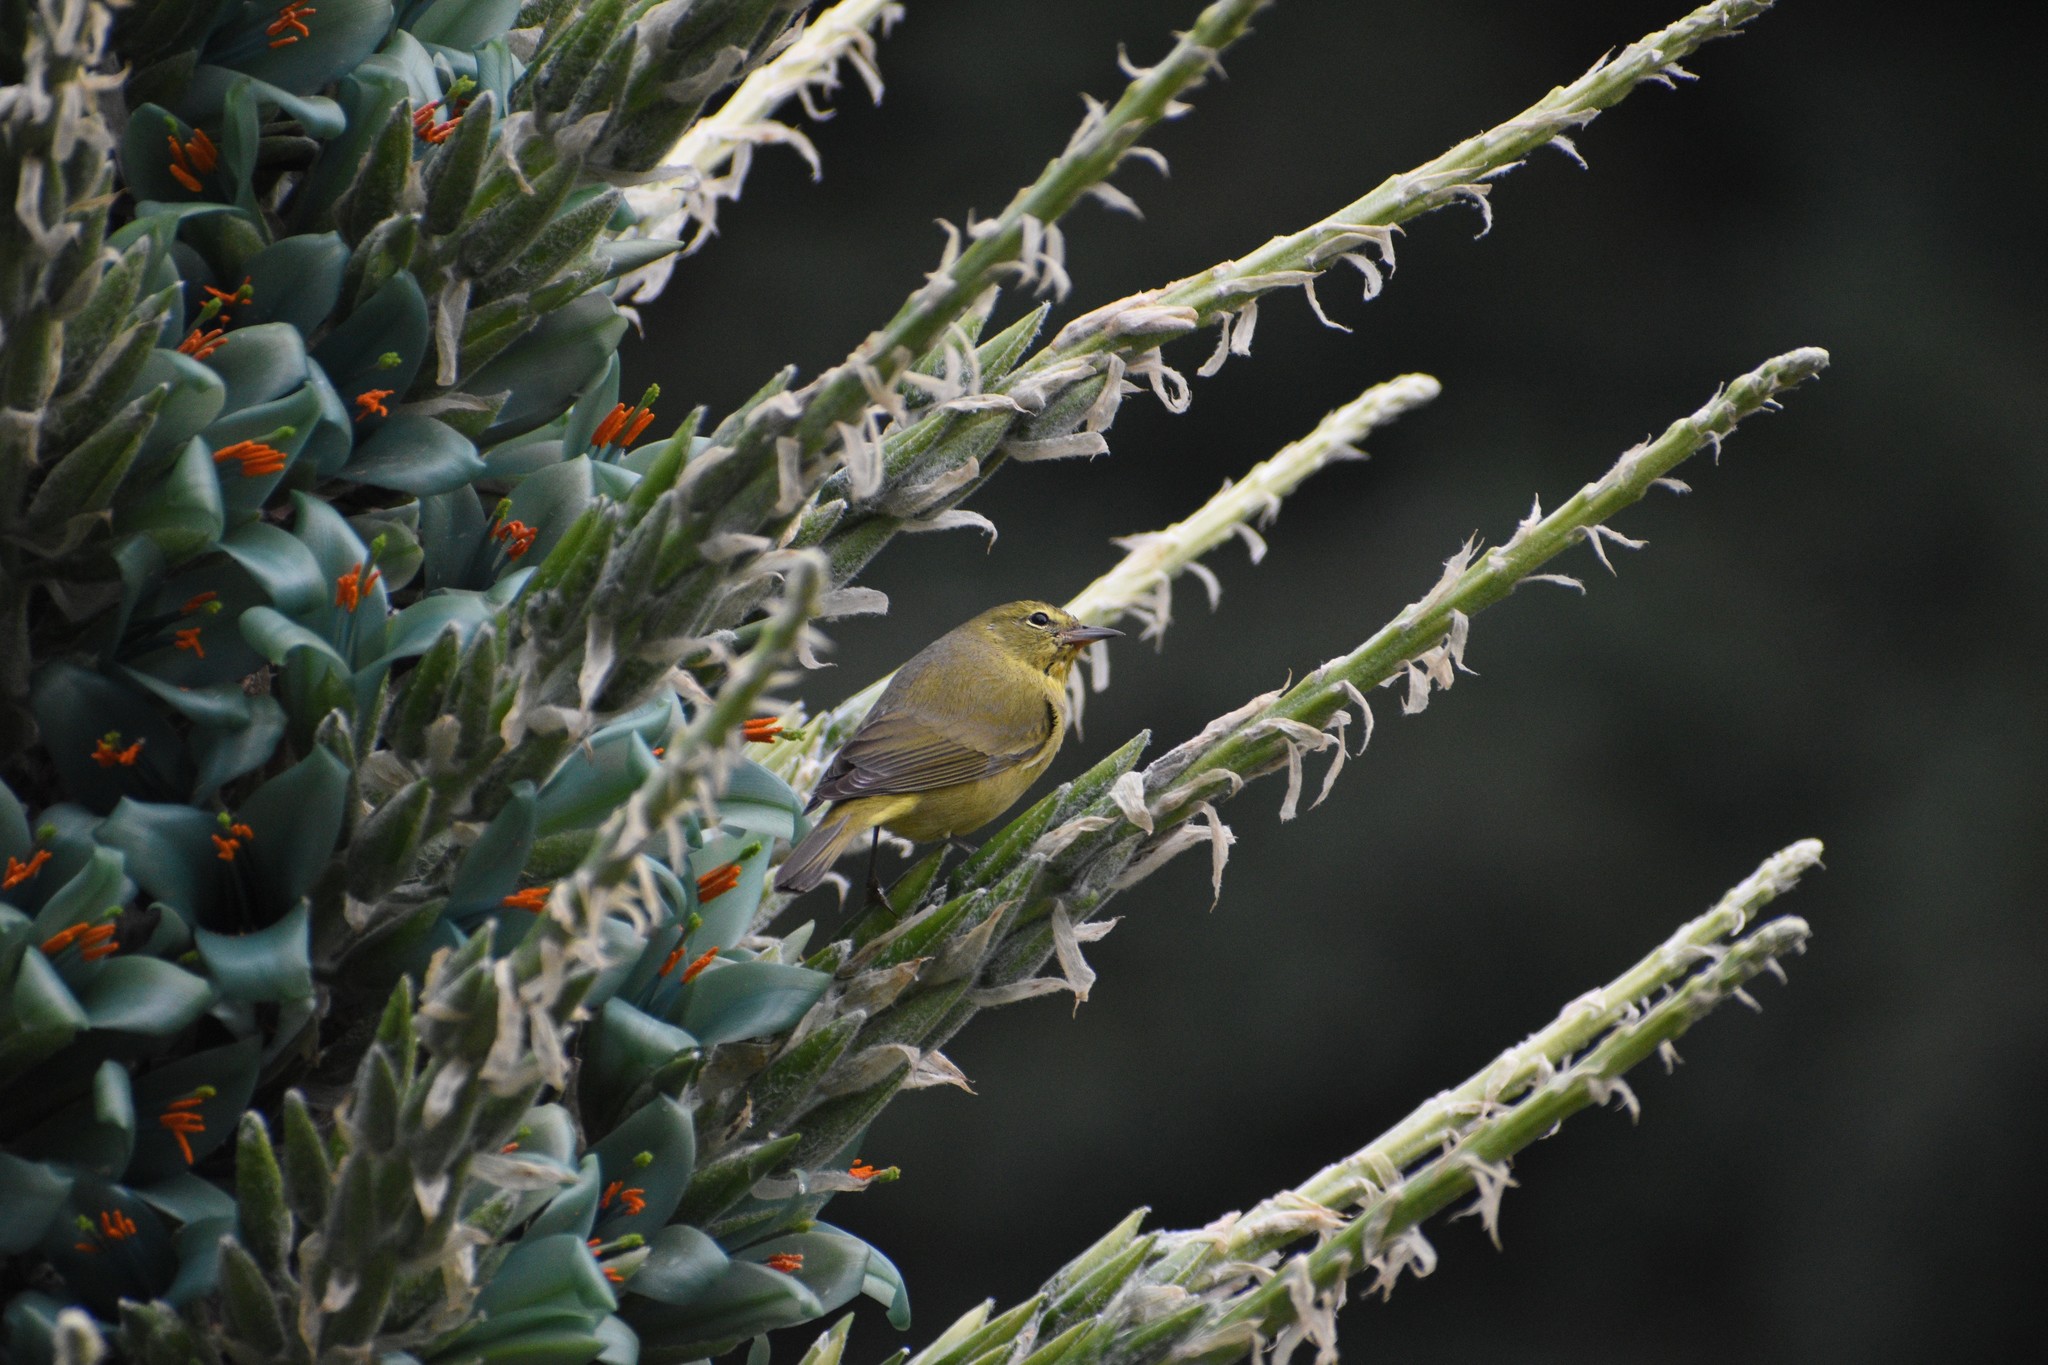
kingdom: Animalia
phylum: Chordata
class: Aves
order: Passeriformes
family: Parulidae
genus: Leiothlypis
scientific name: Leiothlypis celata
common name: Orange-crowned warbler
